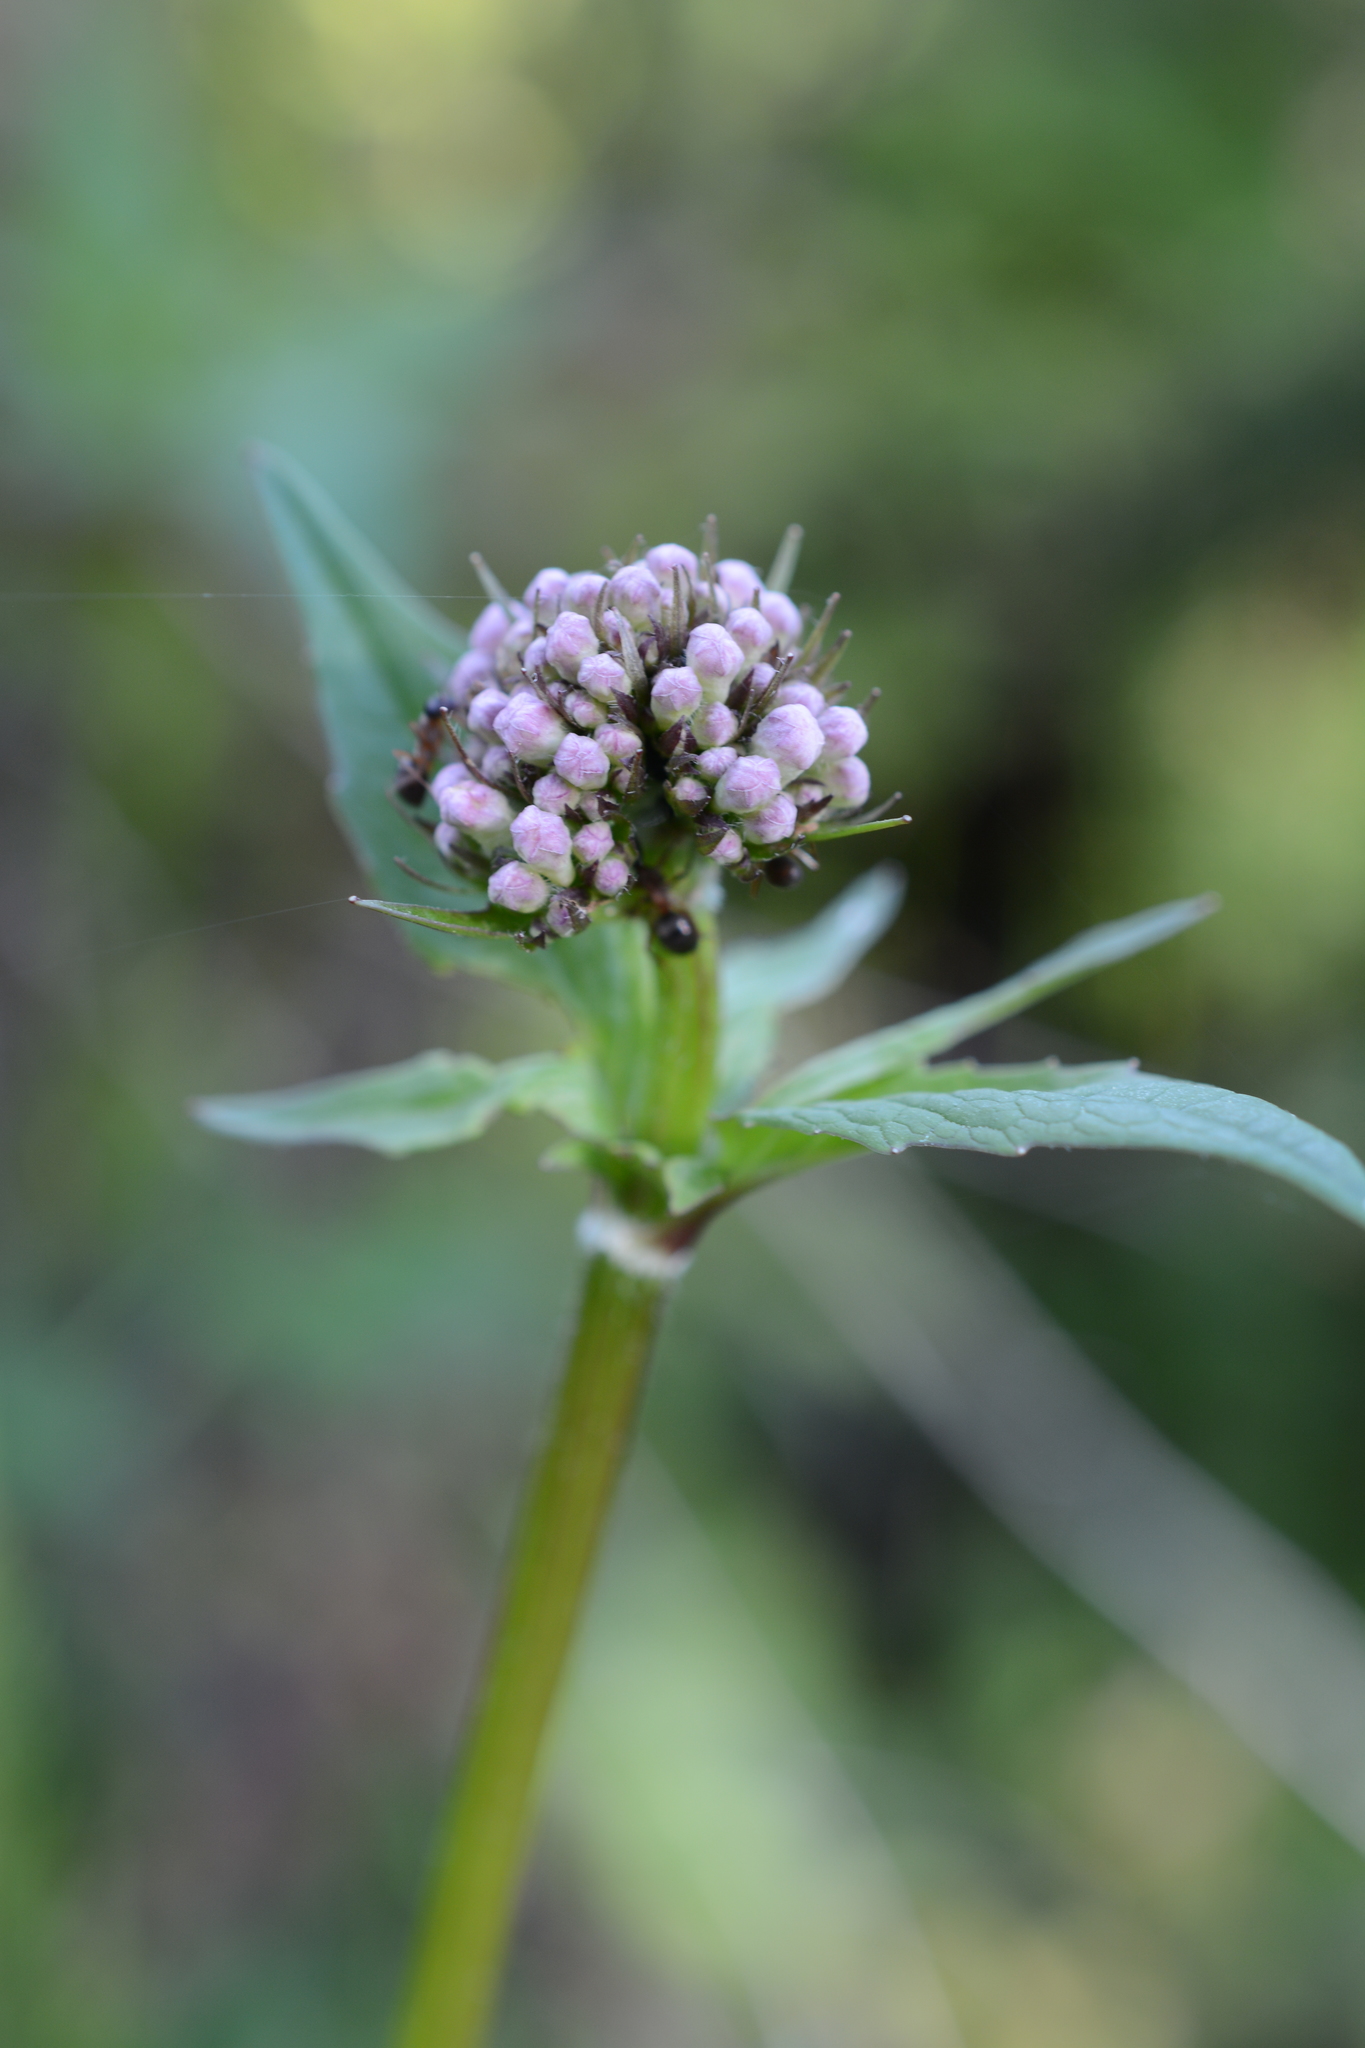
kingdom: Plantae
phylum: Tracheophyta
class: Magnoliopsida
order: Dipsacales
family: Caprifoliaceae
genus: Valeriana
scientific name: Valeriana sitchensis
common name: Pacific valerian
